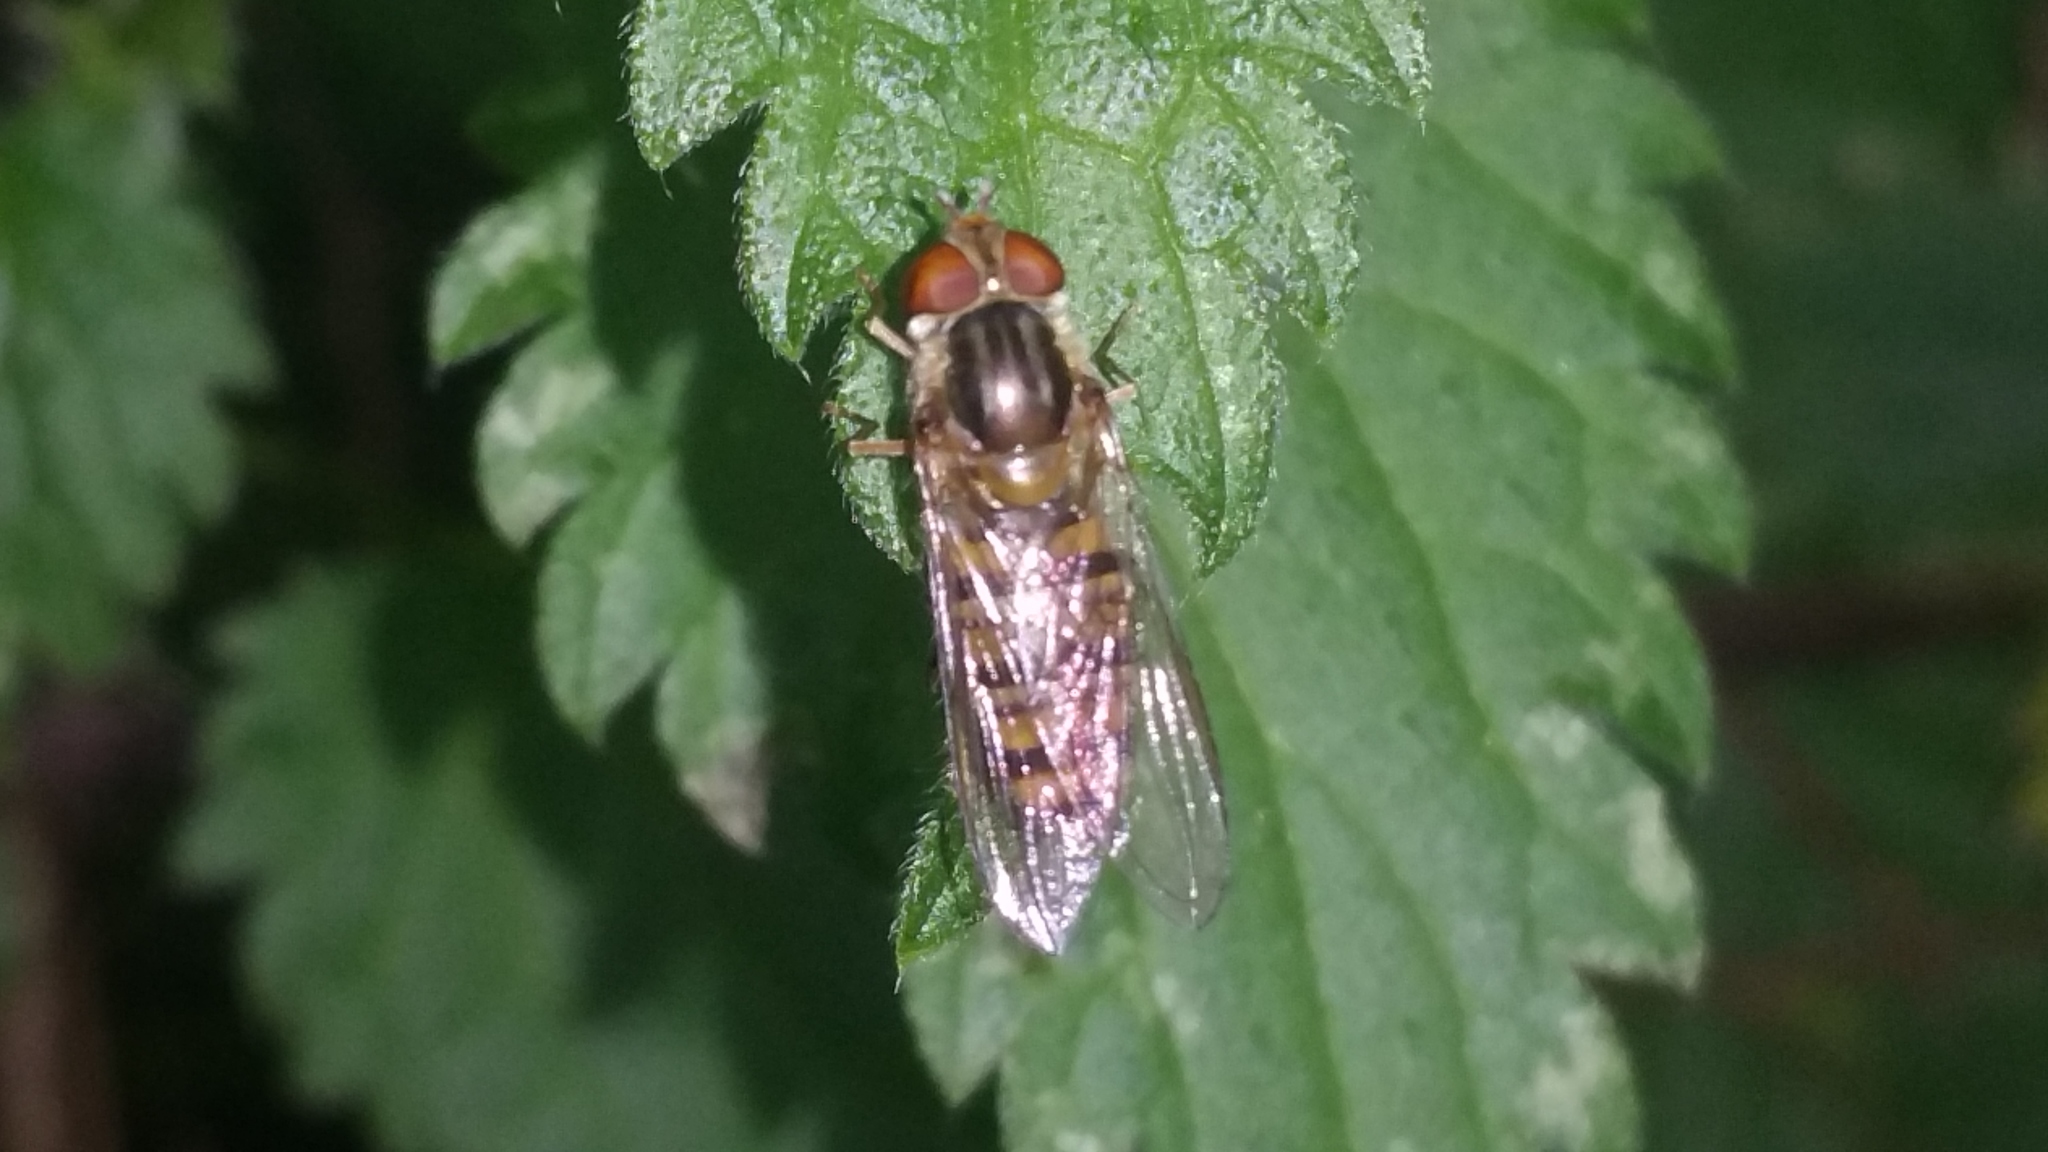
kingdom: Animalia
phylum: Arthropoda
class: Insecta
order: Diptera
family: Syrphidae
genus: Episyrphus
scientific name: Episyrphus balteatus
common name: Marmalade hoverfly
